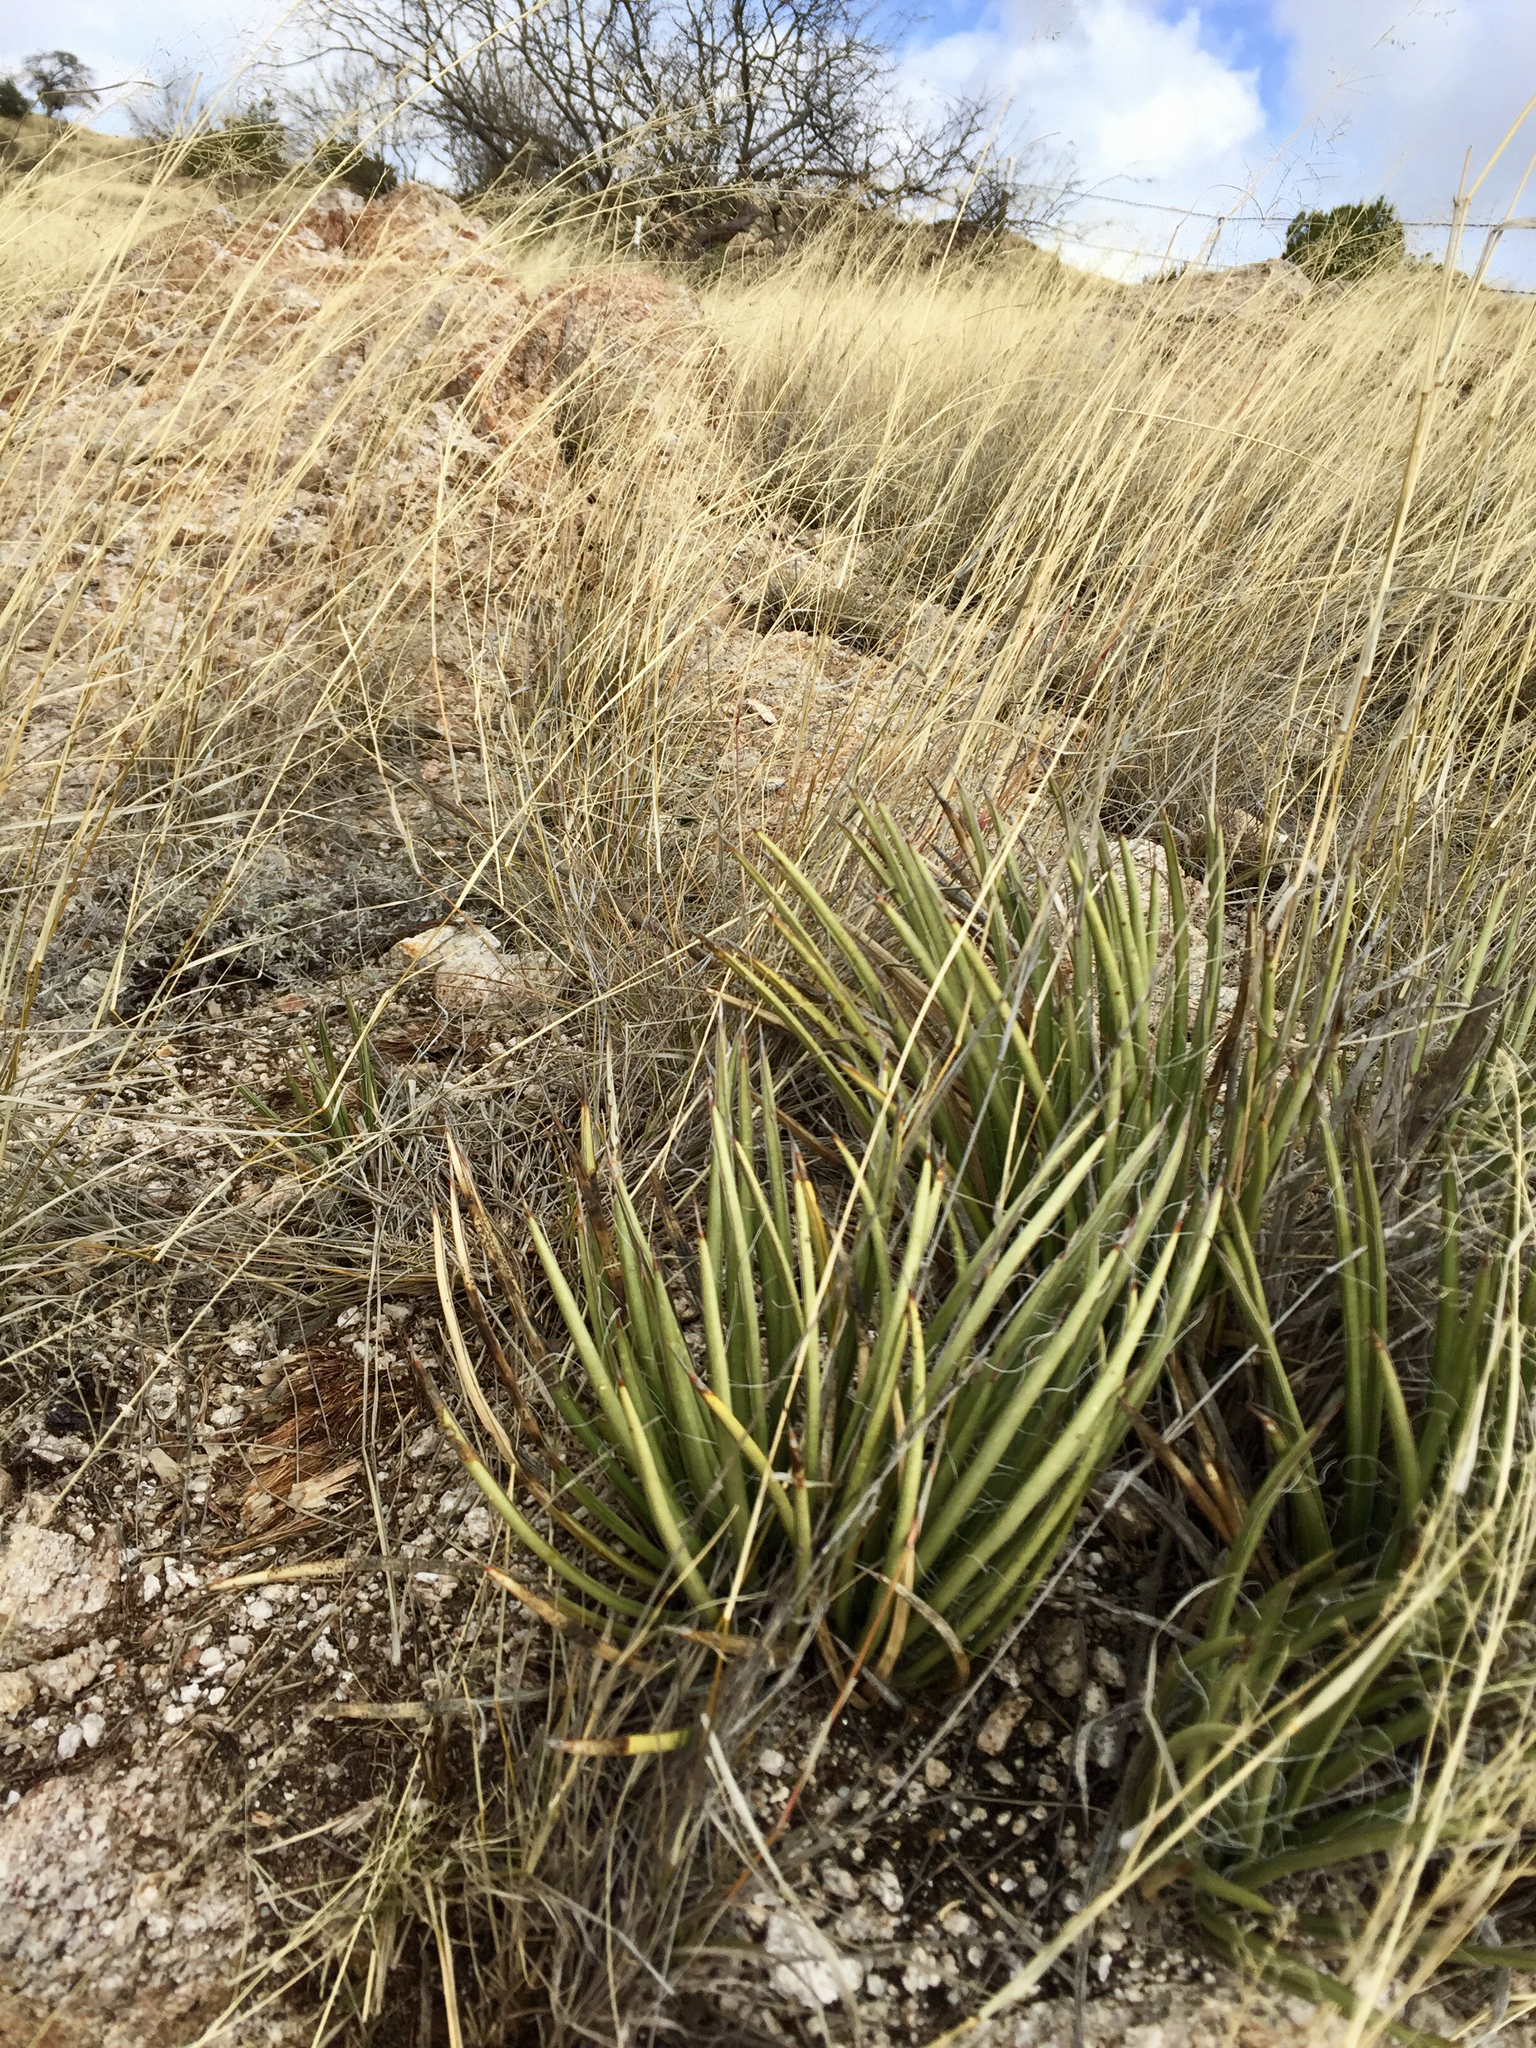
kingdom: Plantae
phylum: Tracheophyta
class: Liliopsida
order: Asparagales
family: Asparagaceae
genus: Agave
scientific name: Agave schottii
